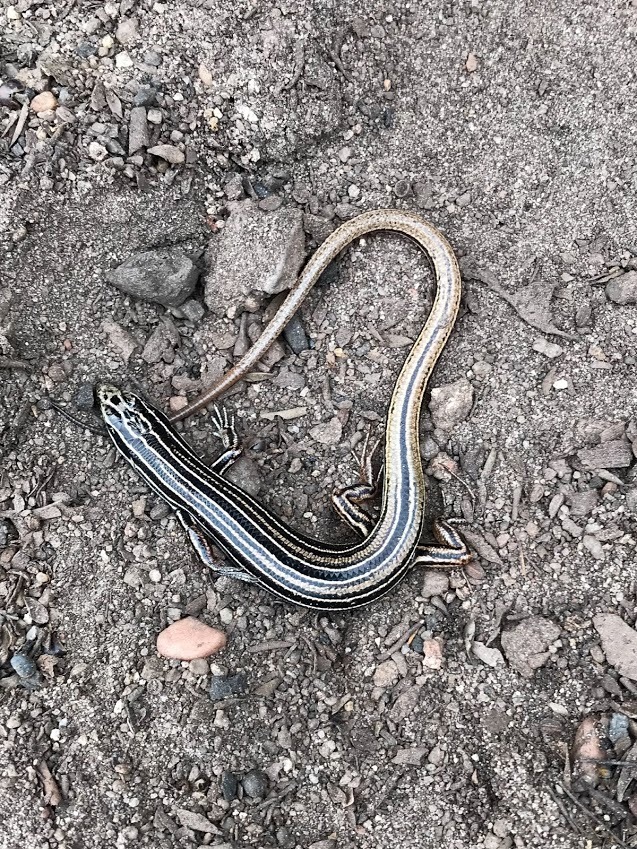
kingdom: Animalia
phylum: Chordata
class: Squamata
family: Scincidae
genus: Ctenotus
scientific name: Ctenotus taeniolatus
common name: Copper-tailed skink
